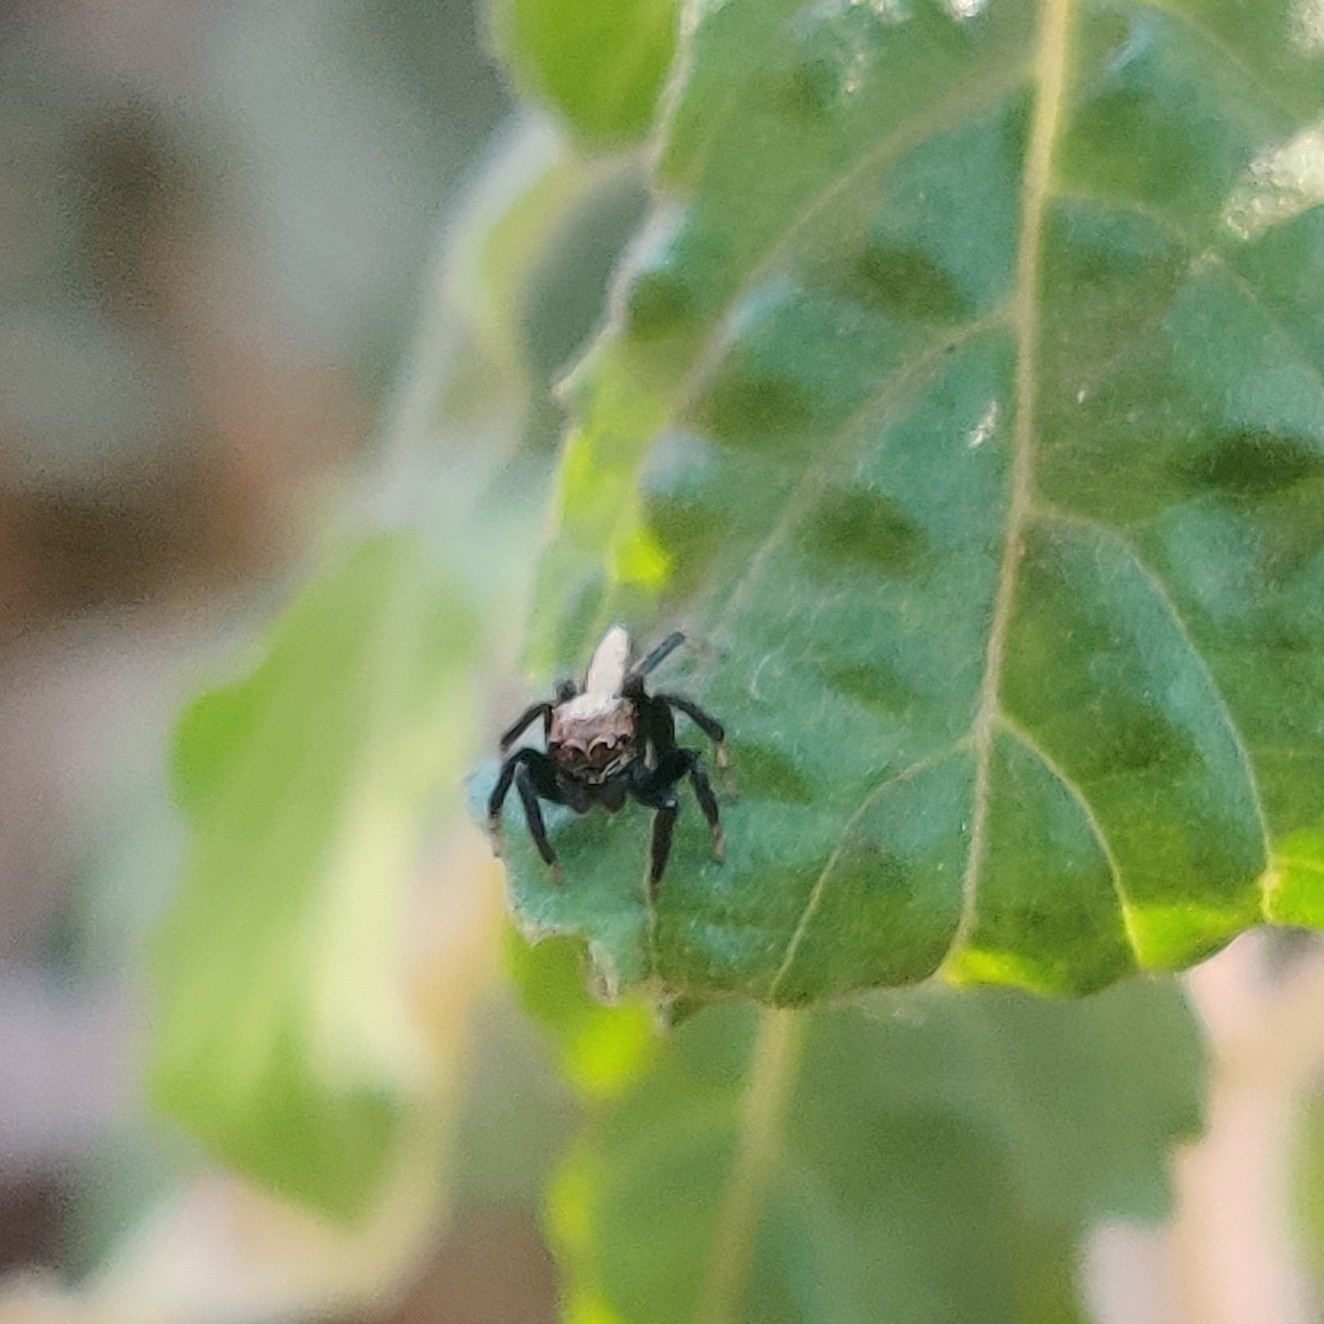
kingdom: Animalia
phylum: Arthropoda
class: Arachnida
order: Araneae
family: Salticidae
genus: Thyene
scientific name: Thyene bivittata
